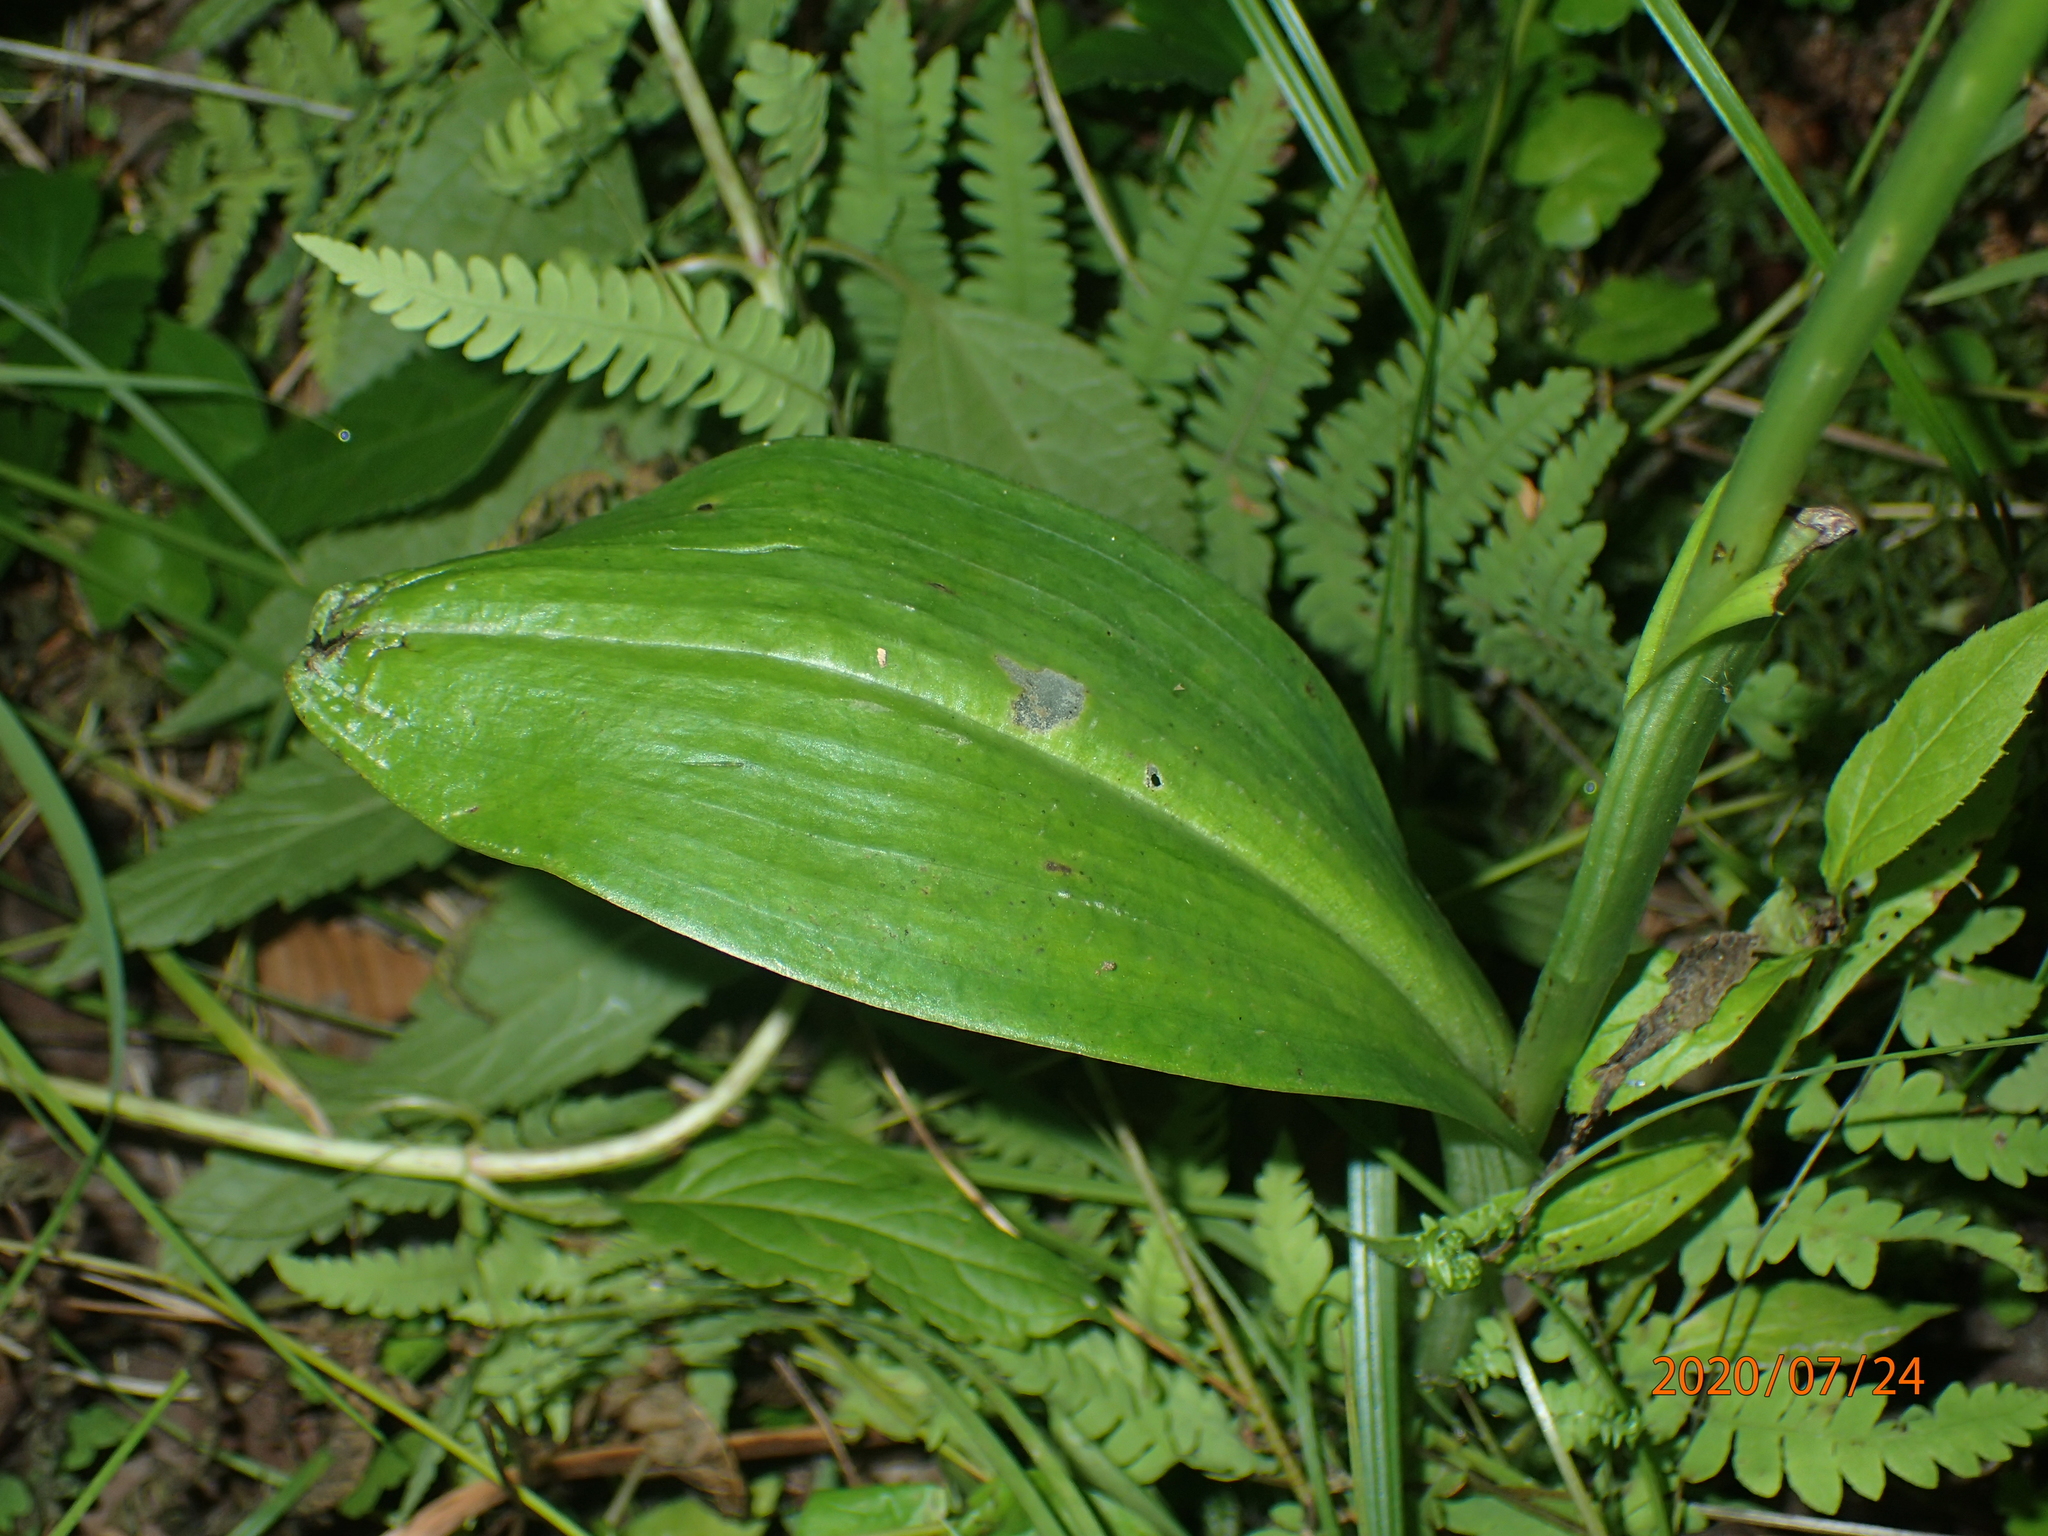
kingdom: Plantae
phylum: Tracheophyta
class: Liliopsida
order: Asparagales
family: Orchidaceae
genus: Platanthera
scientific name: Platanthera psycodes
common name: Lesser purple fringed orchid
